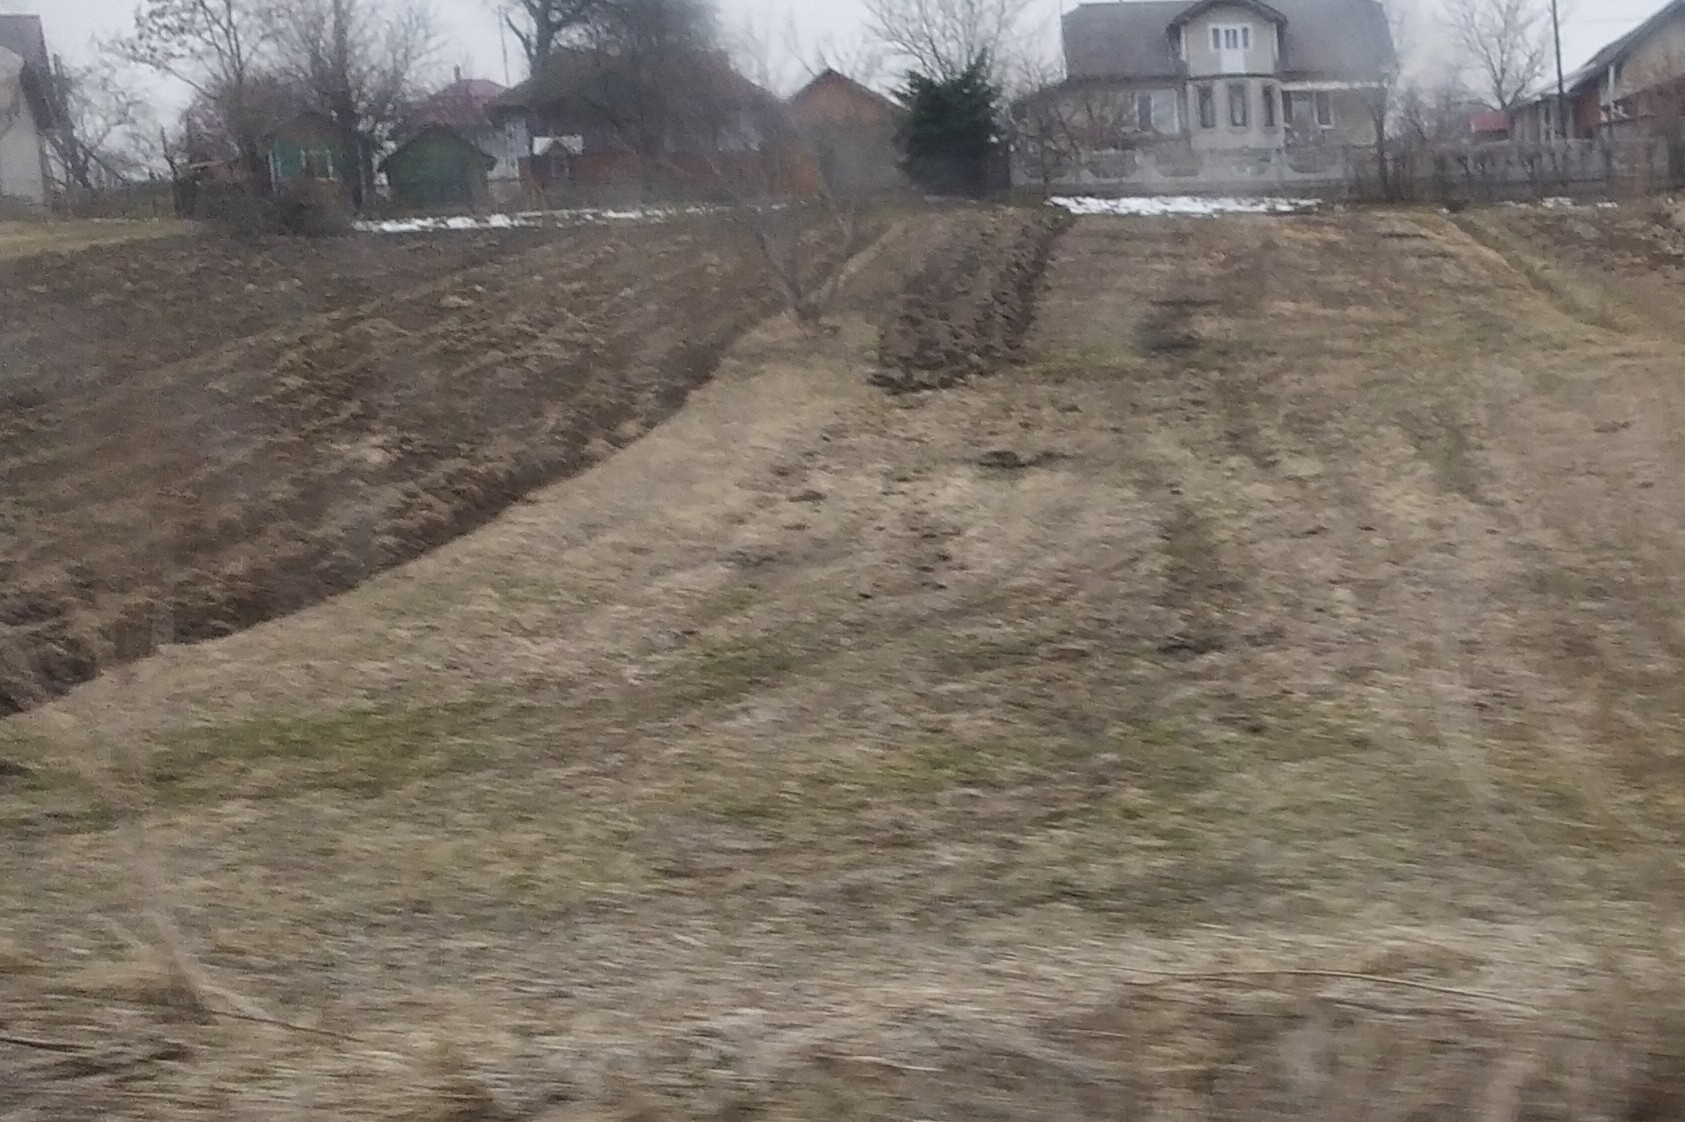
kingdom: Animalia
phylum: Chordata
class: Mammalia
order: Soricomorpha
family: Talpidae
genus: Talpa
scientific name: Talpa europaea
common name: European mole
